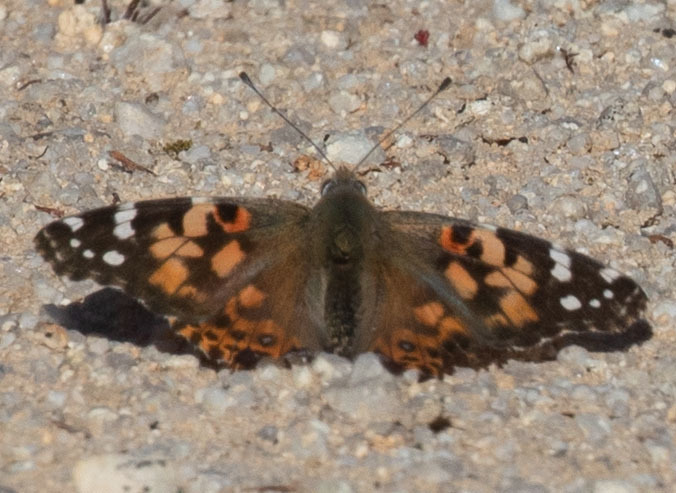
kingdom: Animalia
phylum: Arthropoda
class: Insecta
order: Lepidoptera
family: Nymphalidae
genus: Vanessa
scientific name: Vanessa cardui
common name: Painted lady
